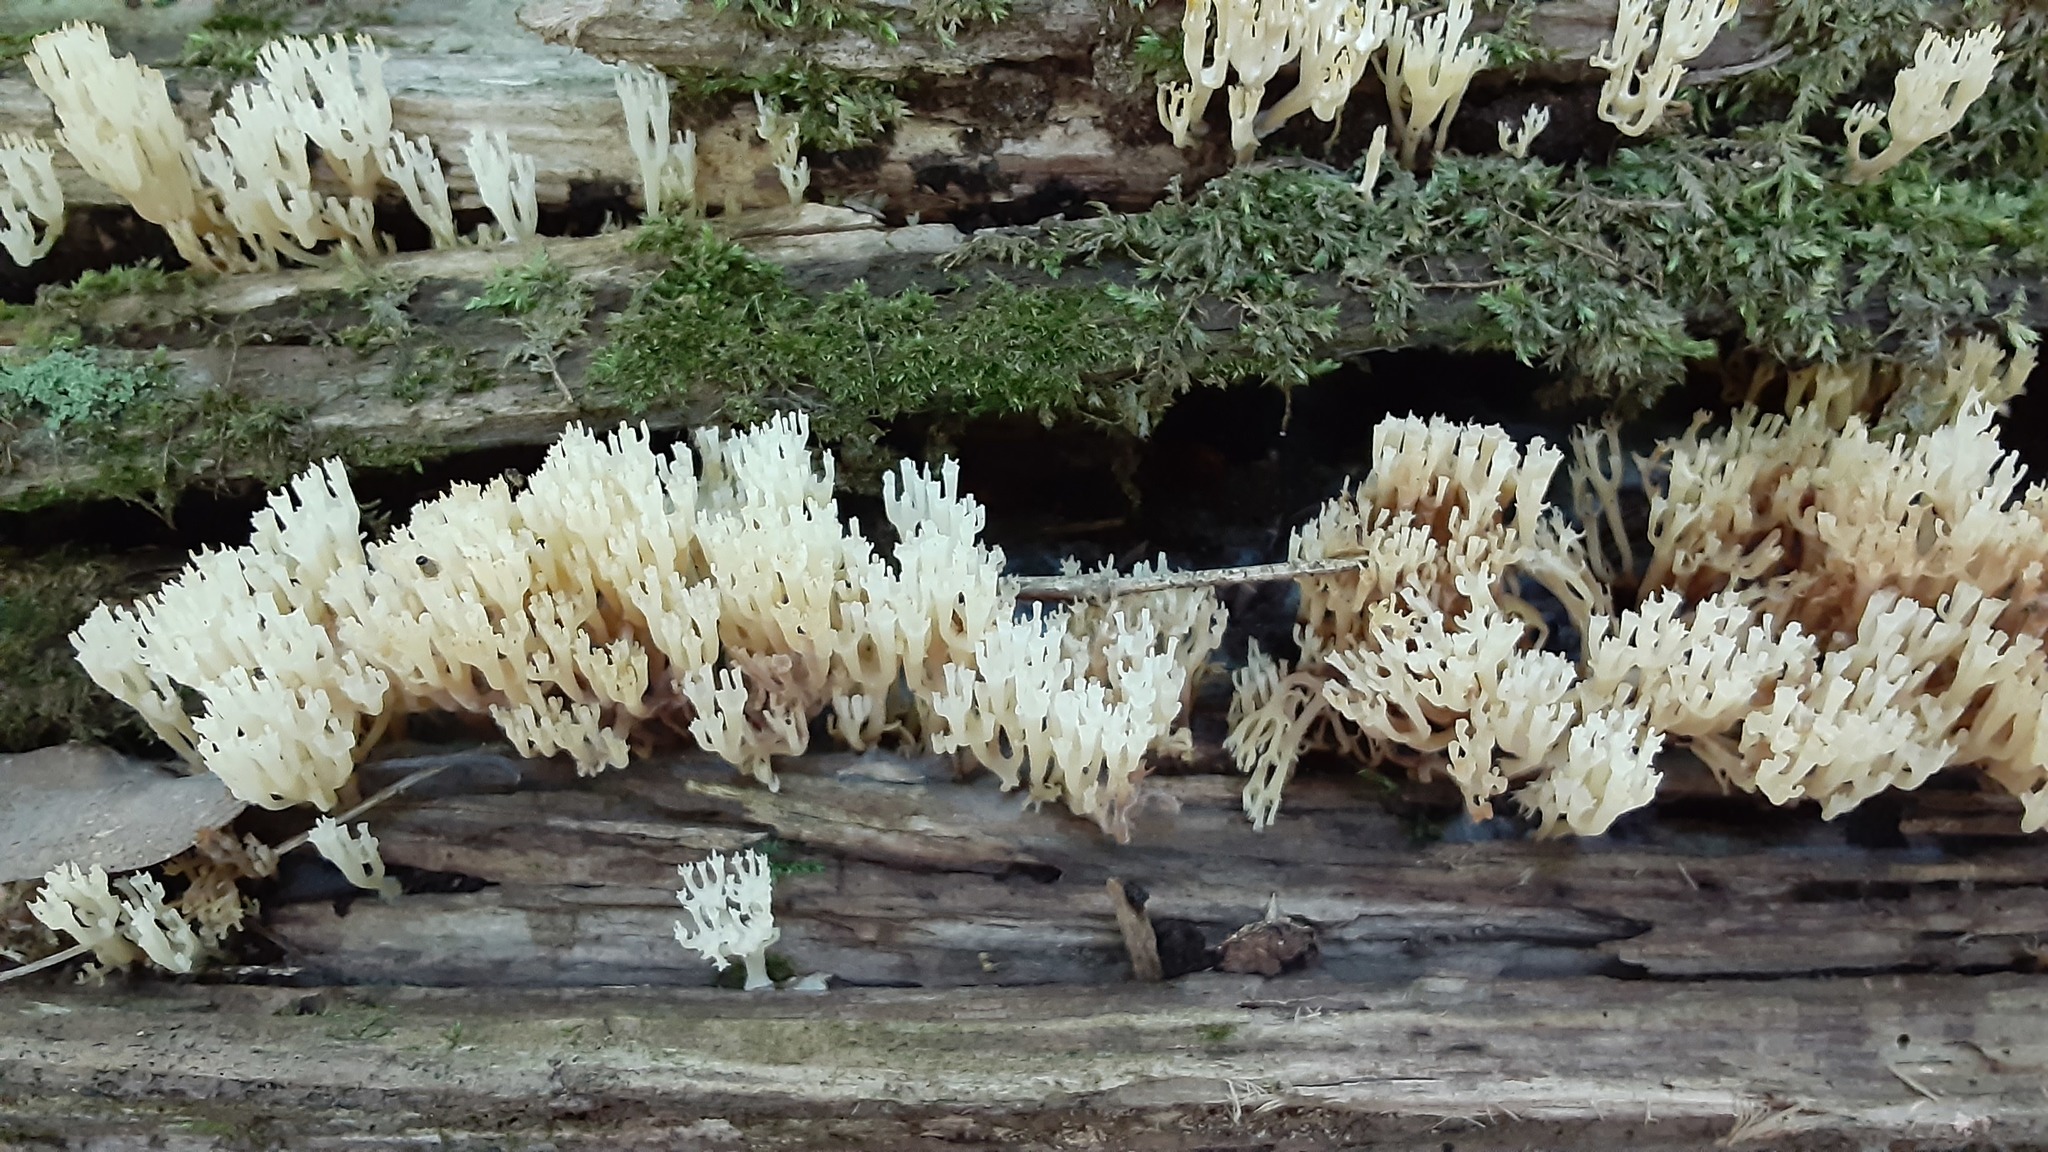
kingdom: Fungi
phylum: Basidiomycota
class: Agaricomycetes
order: Russulales
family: Auriscalpiaceae
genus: Artomyces
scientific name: Artomyces pyxidatus
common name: Crown-tipped coral fungus
